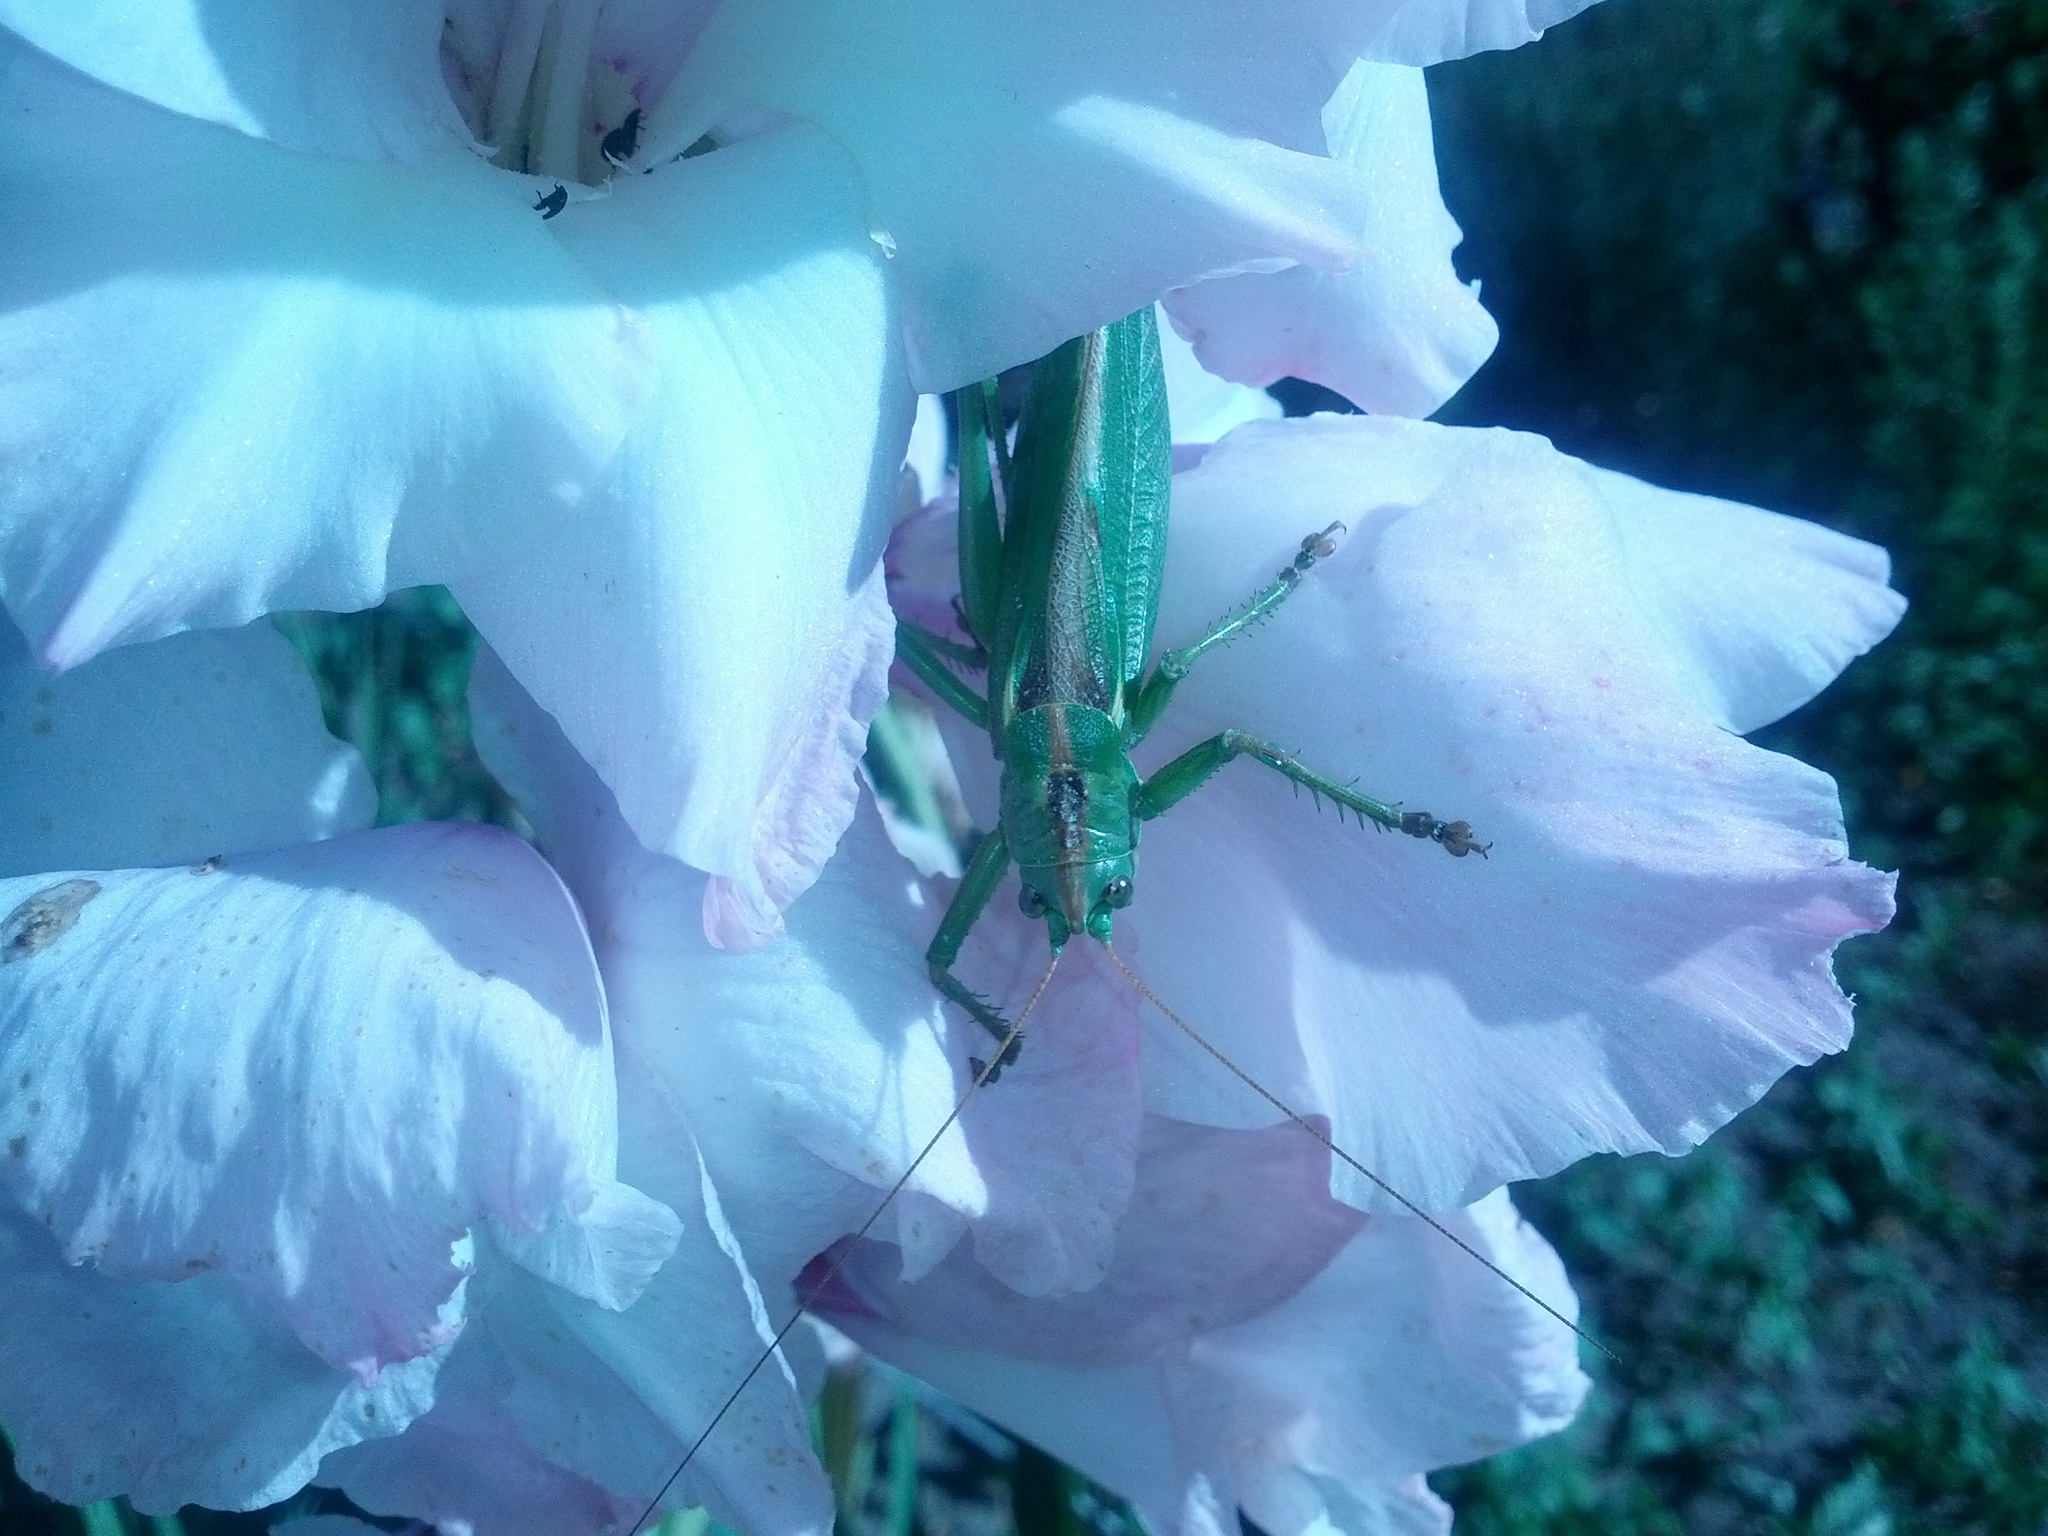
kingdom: Animalia
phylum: Arthropoda
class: Insecta
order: Orthoptera
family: Tettigoniidae
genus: Tettigonia
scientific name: Tettigonia viridissima
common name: Great green bush-cricket
